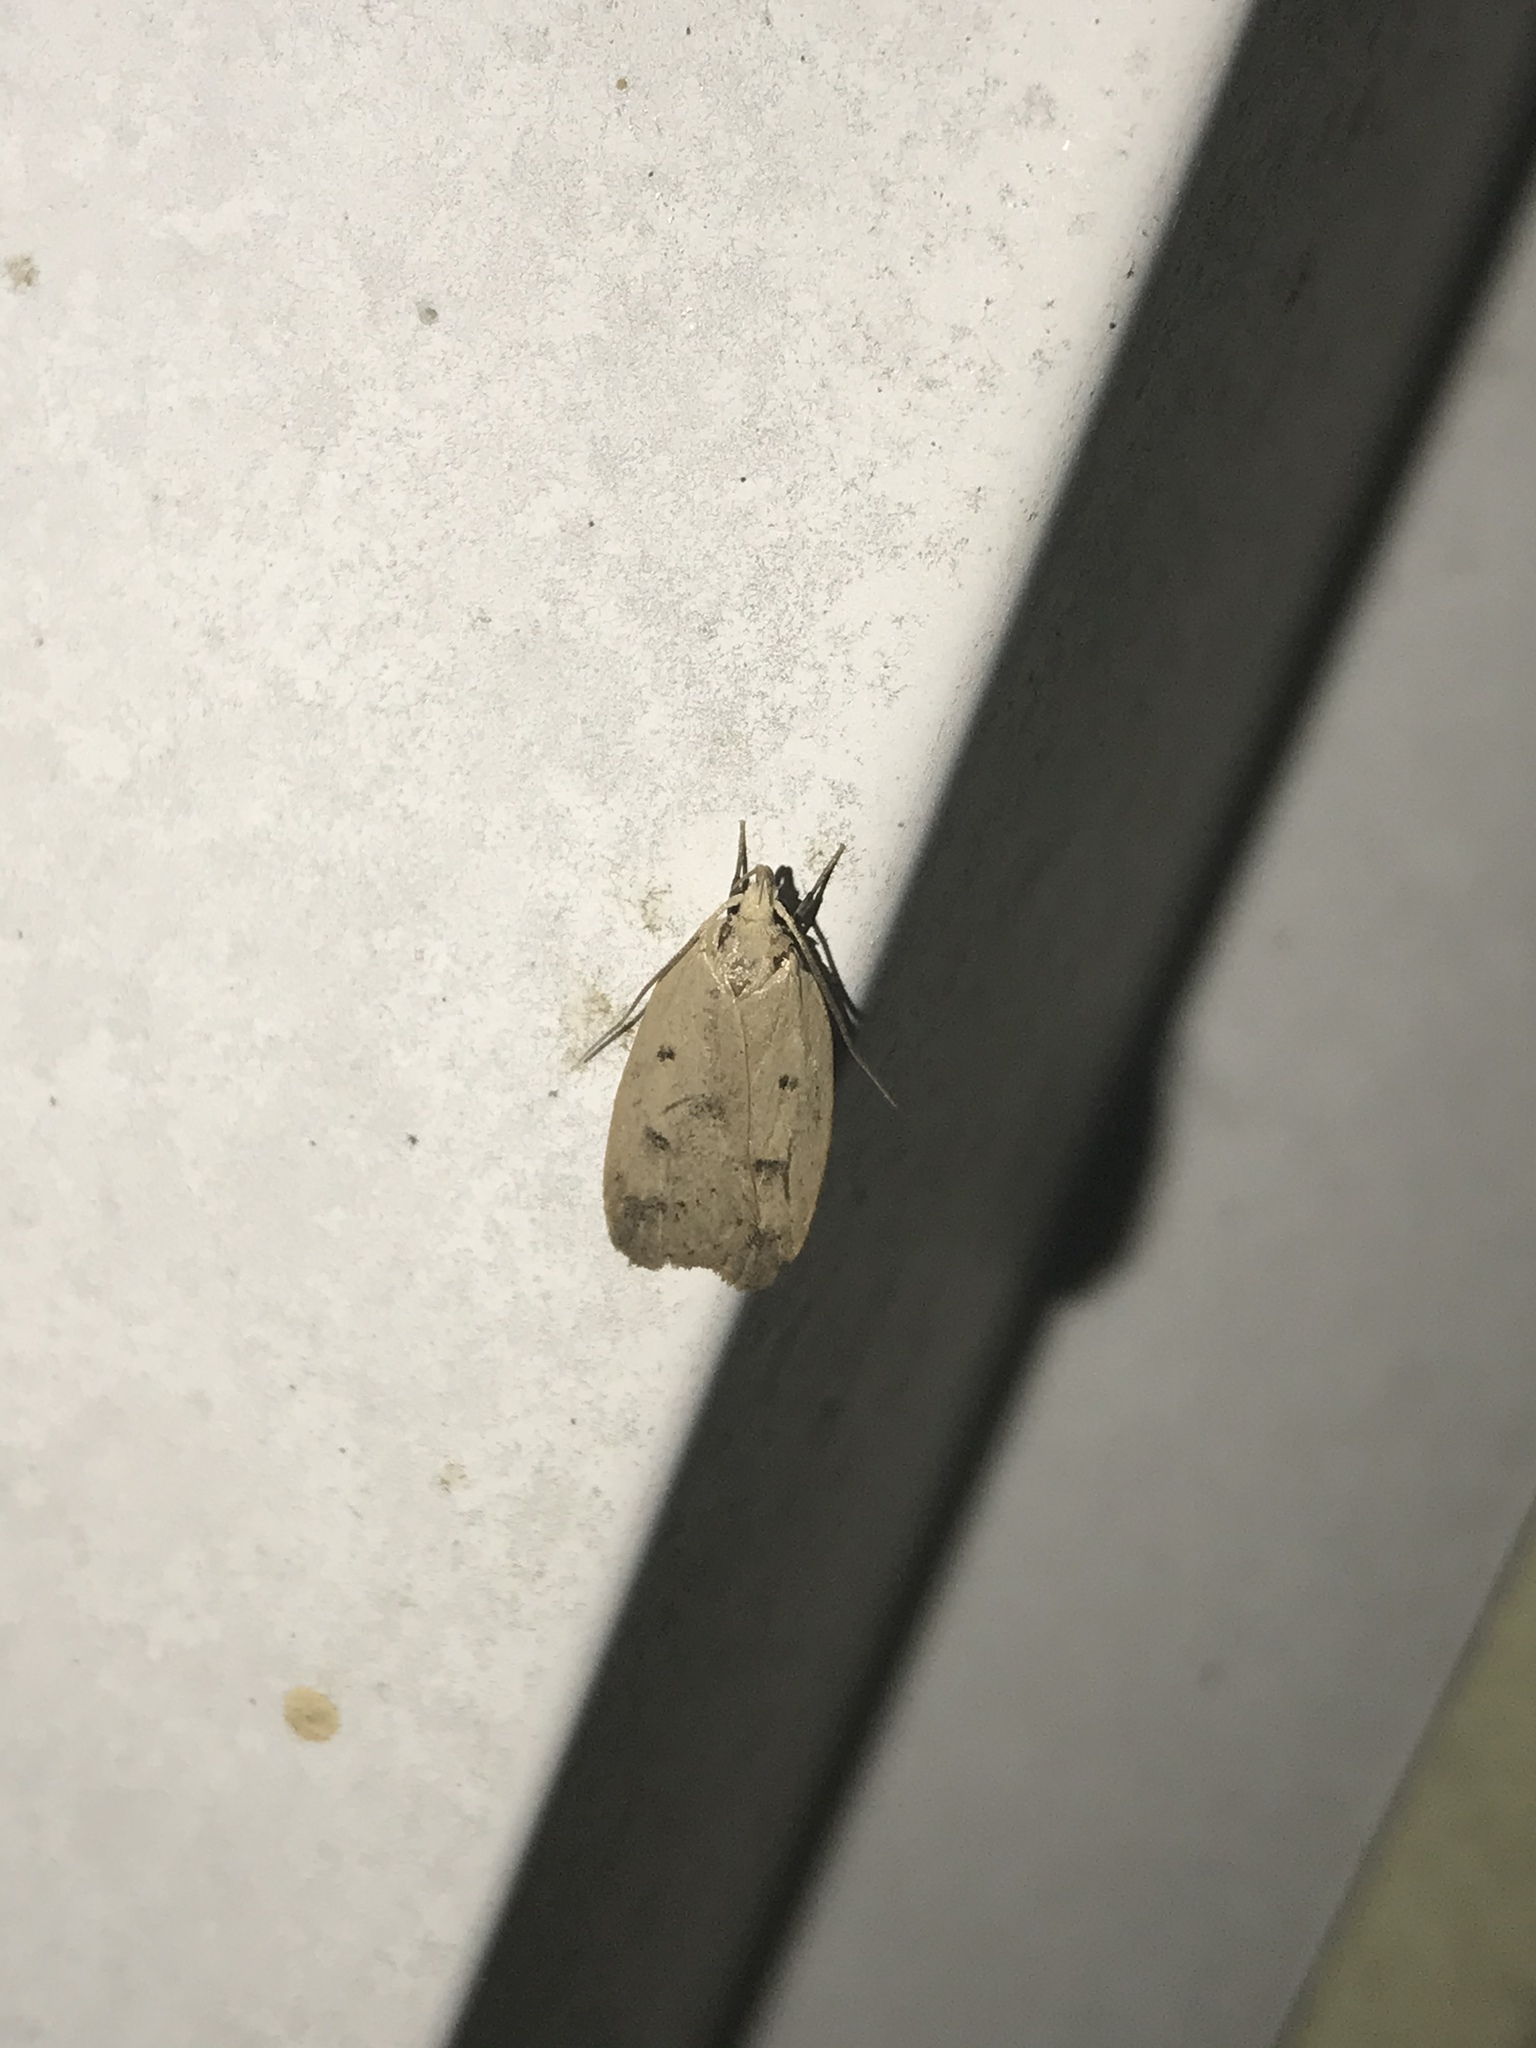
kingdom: Animalia
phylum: Arthropoda
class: Insecta
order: Lepidoptera
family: Peleopodidae
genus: Machimia
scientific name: Machimia tentoriferella
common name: Gold-striped leaftier moth
